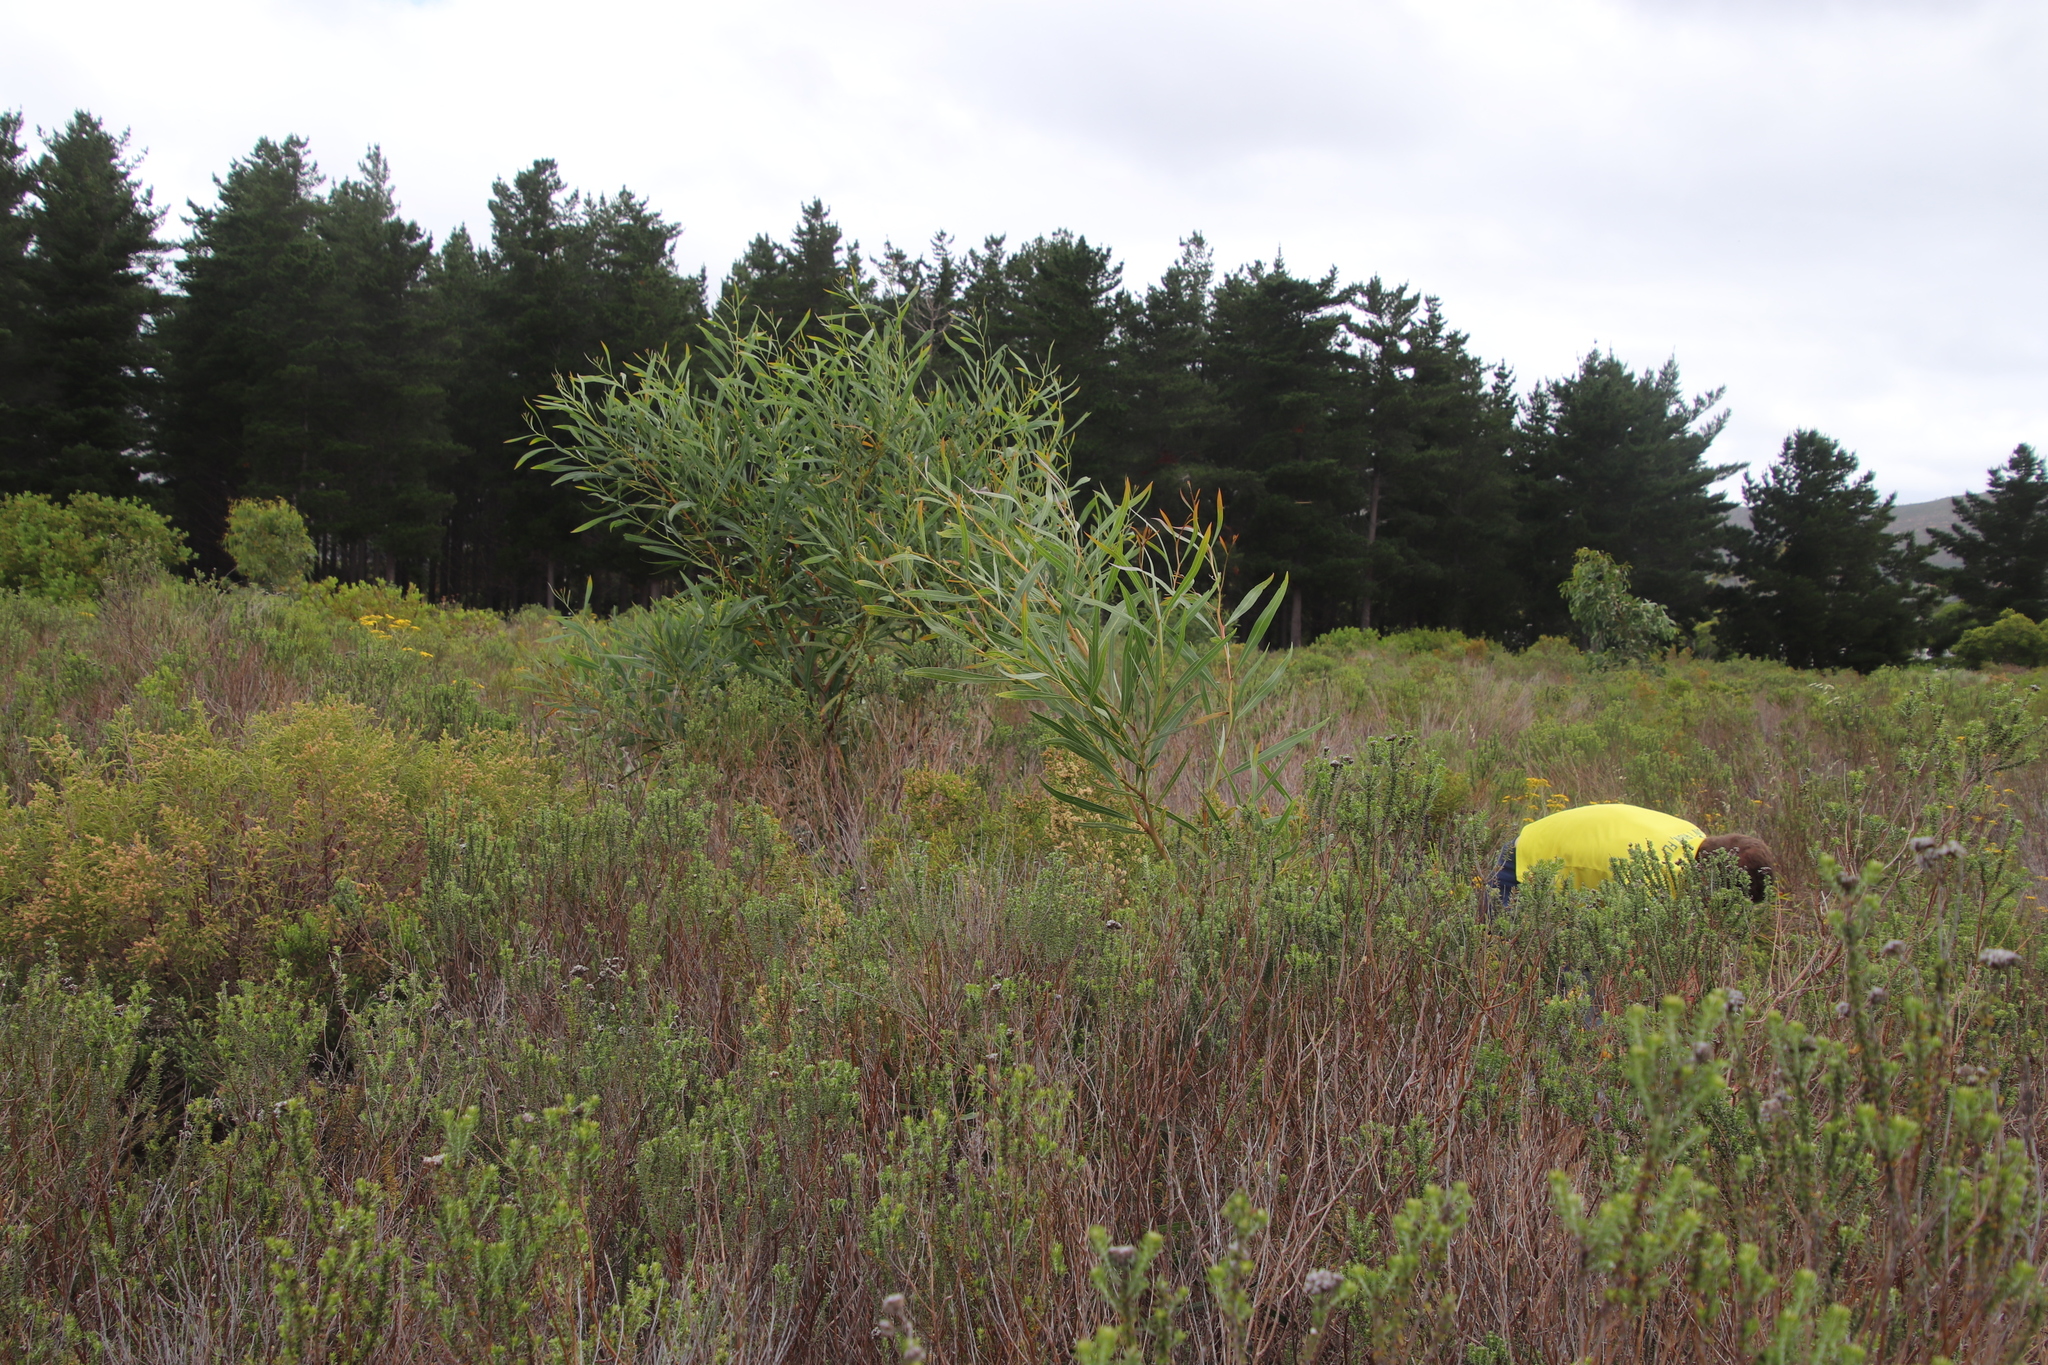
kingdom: Plantae
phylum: Tracheophyta
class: Magnoliopsida
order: Fabales
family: Fabaceae
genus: Acacia
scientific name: Acacia saligna
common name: Orange wattle
